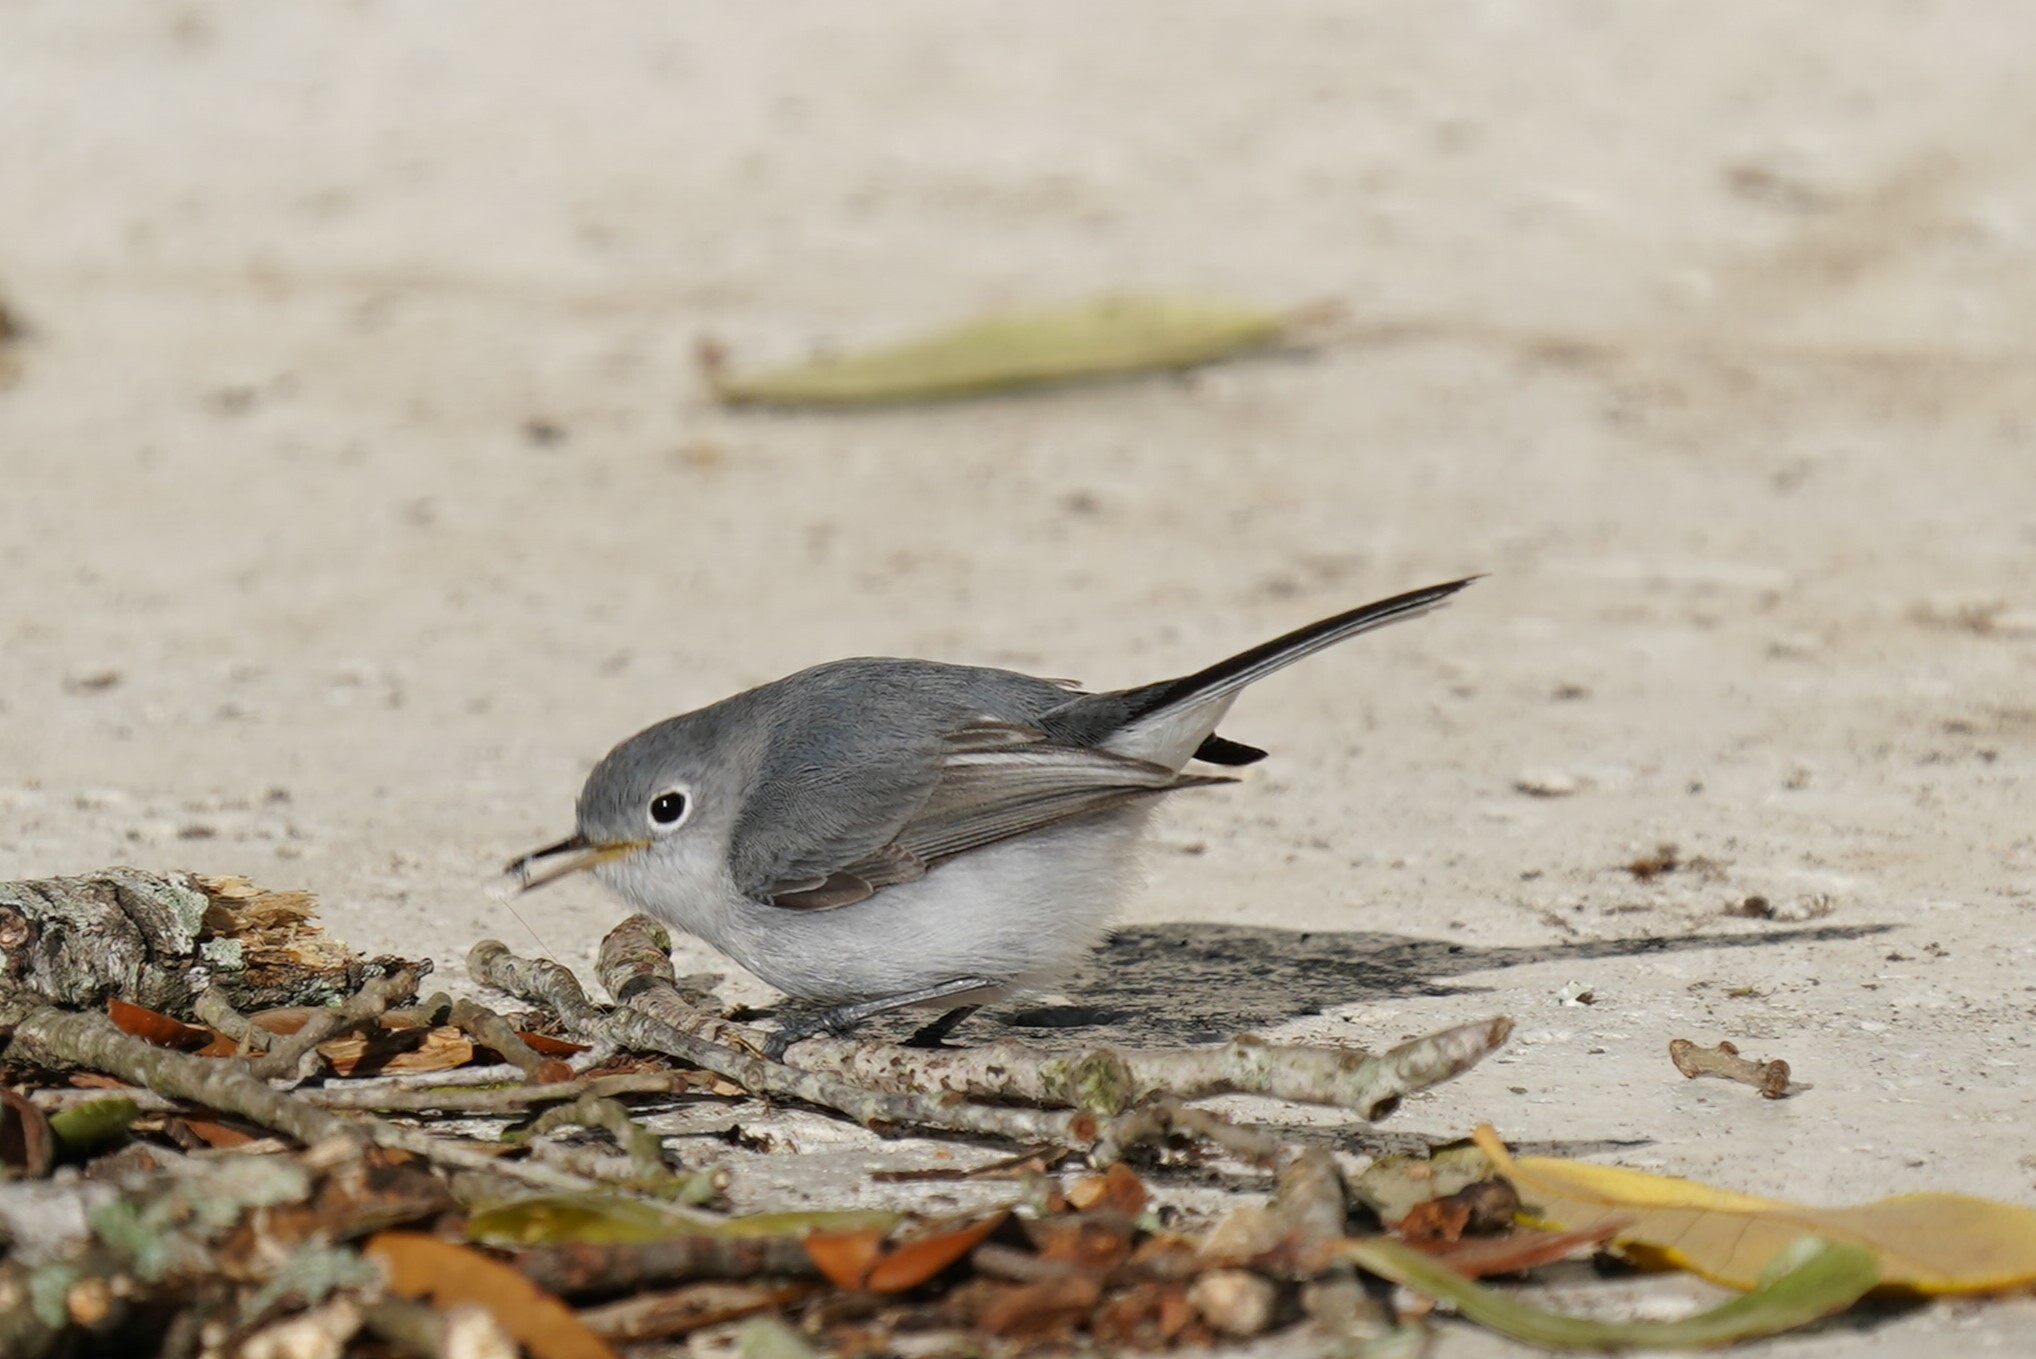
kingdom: Animalia
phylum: Chordata
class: Aves
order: Passeriformes
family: Polioptilidae
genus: Polioptila
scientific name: Polioptila caerulea
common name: Blue-gray gnatcatcher
